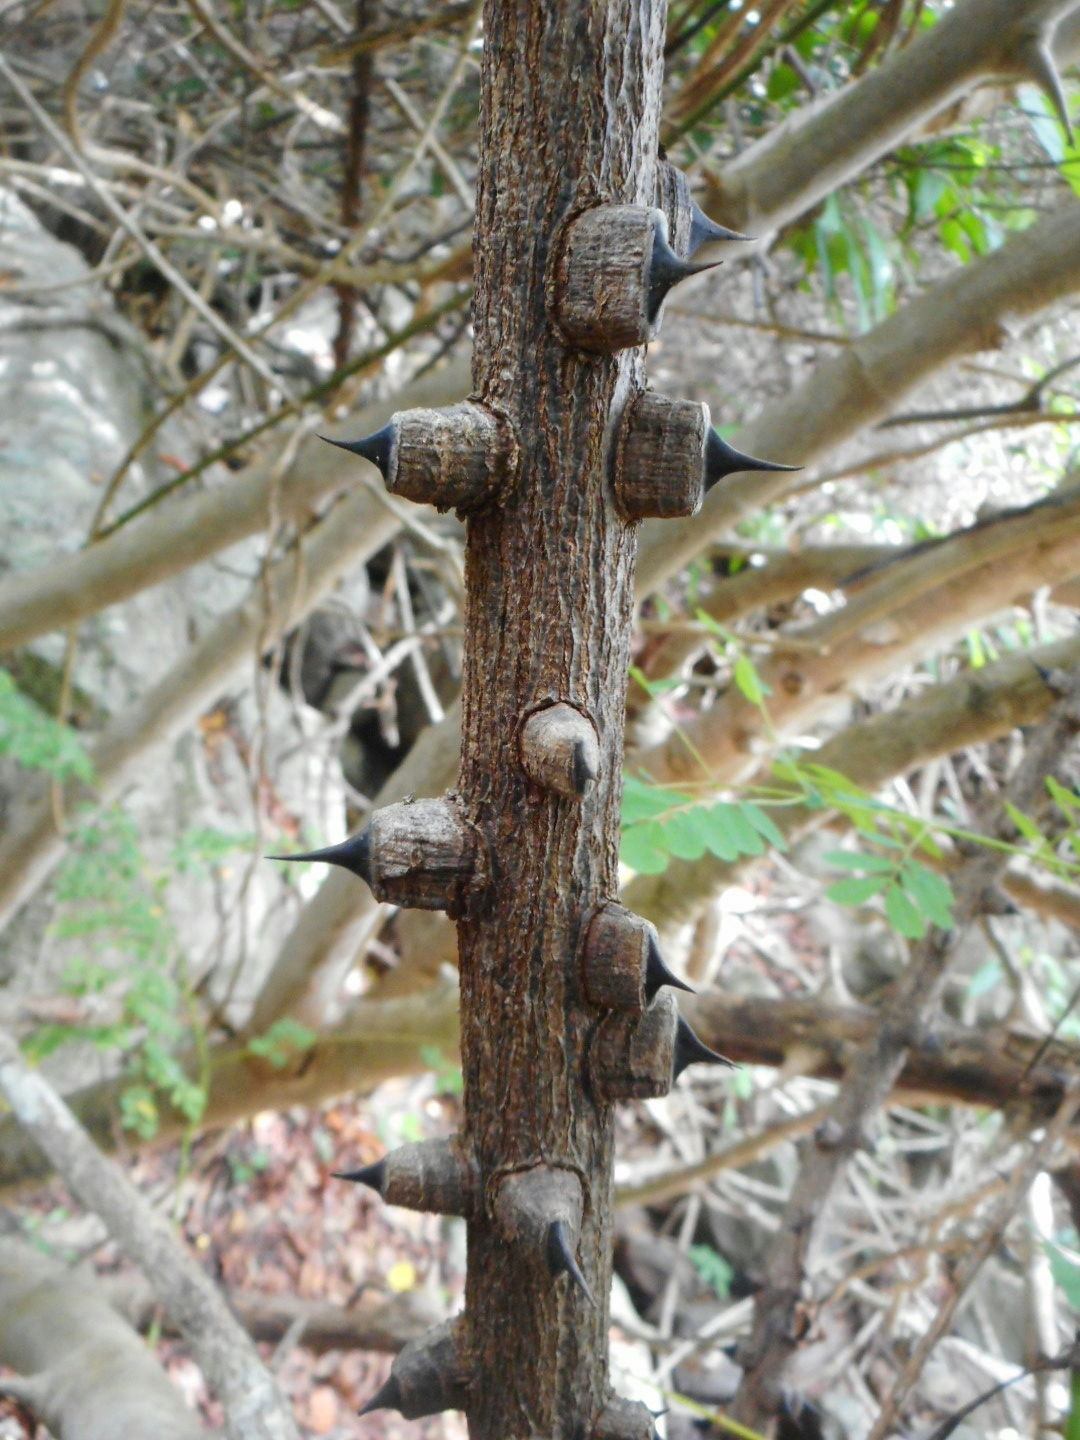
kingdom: Plantae
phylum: Tracheophyta
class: Magnoliopsida
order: Fabales
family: Fabaceae
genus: Mezoneuron
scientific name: Mezoneuron pubescens
